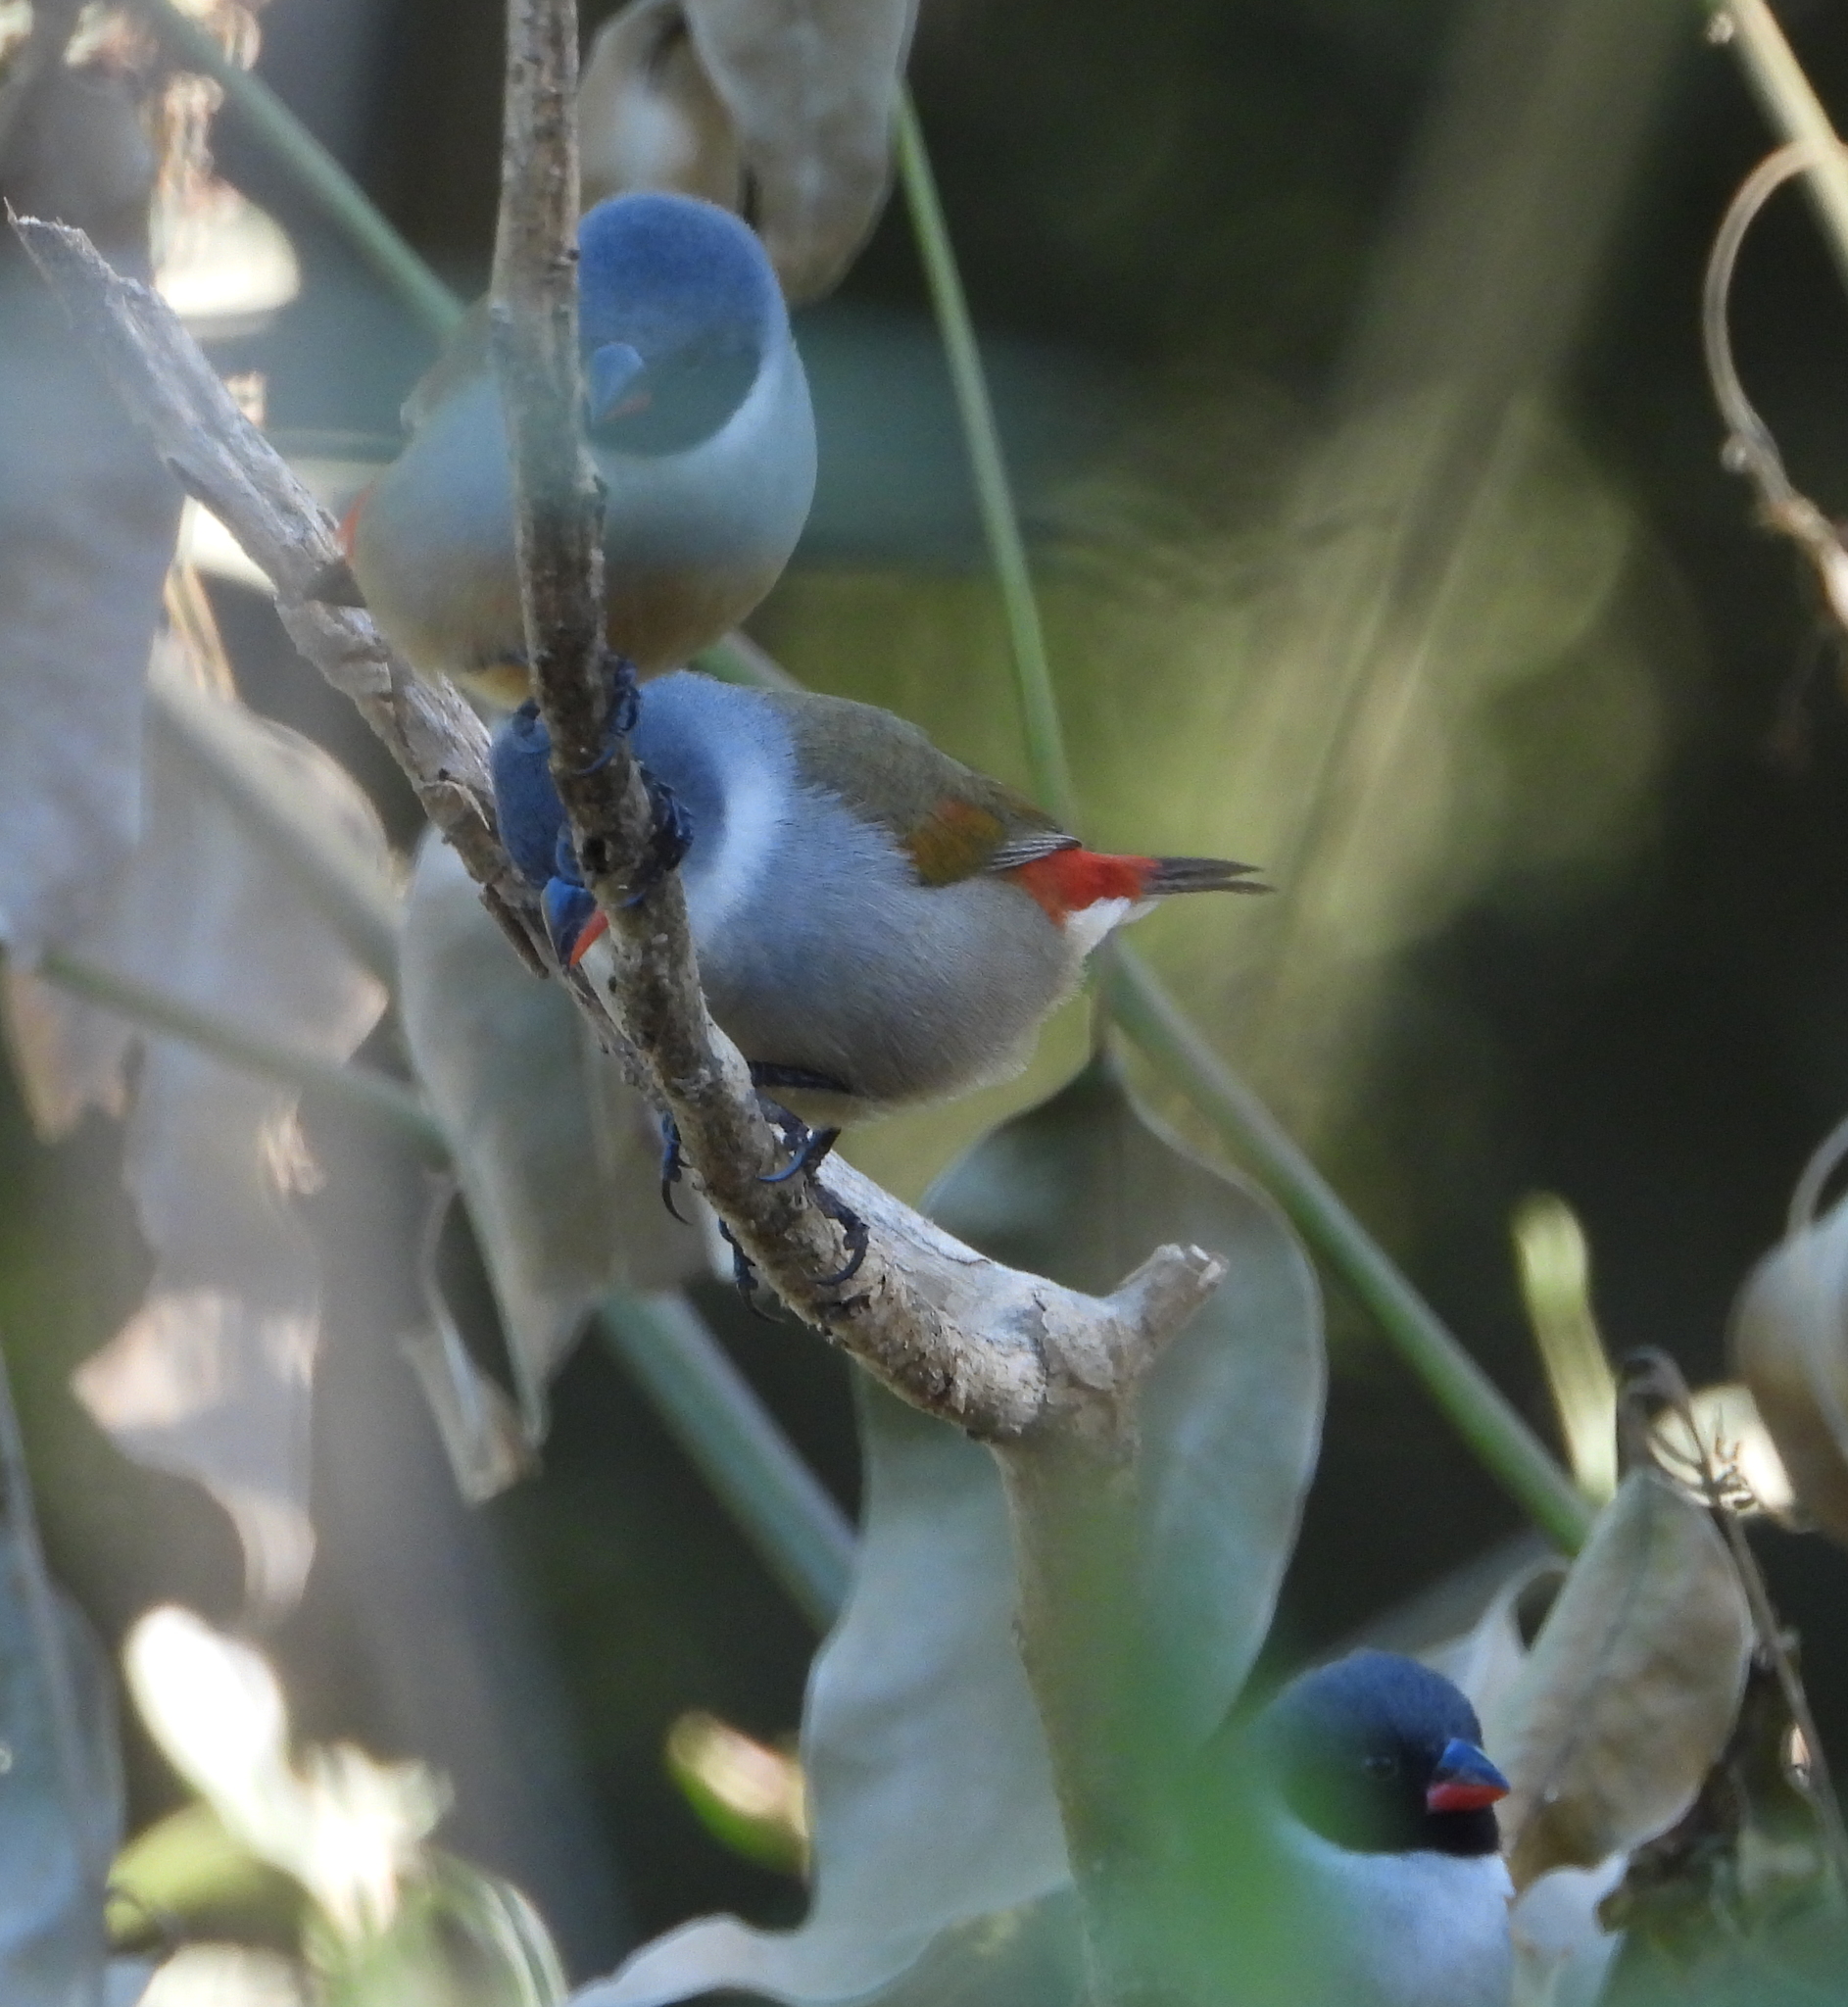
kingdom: Animalia
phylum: Chordata
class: Aves
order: Passeriformes
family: Estrildidae
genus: Coccopygia
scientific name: Coccopygia melanotis
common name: Swee waxbill
